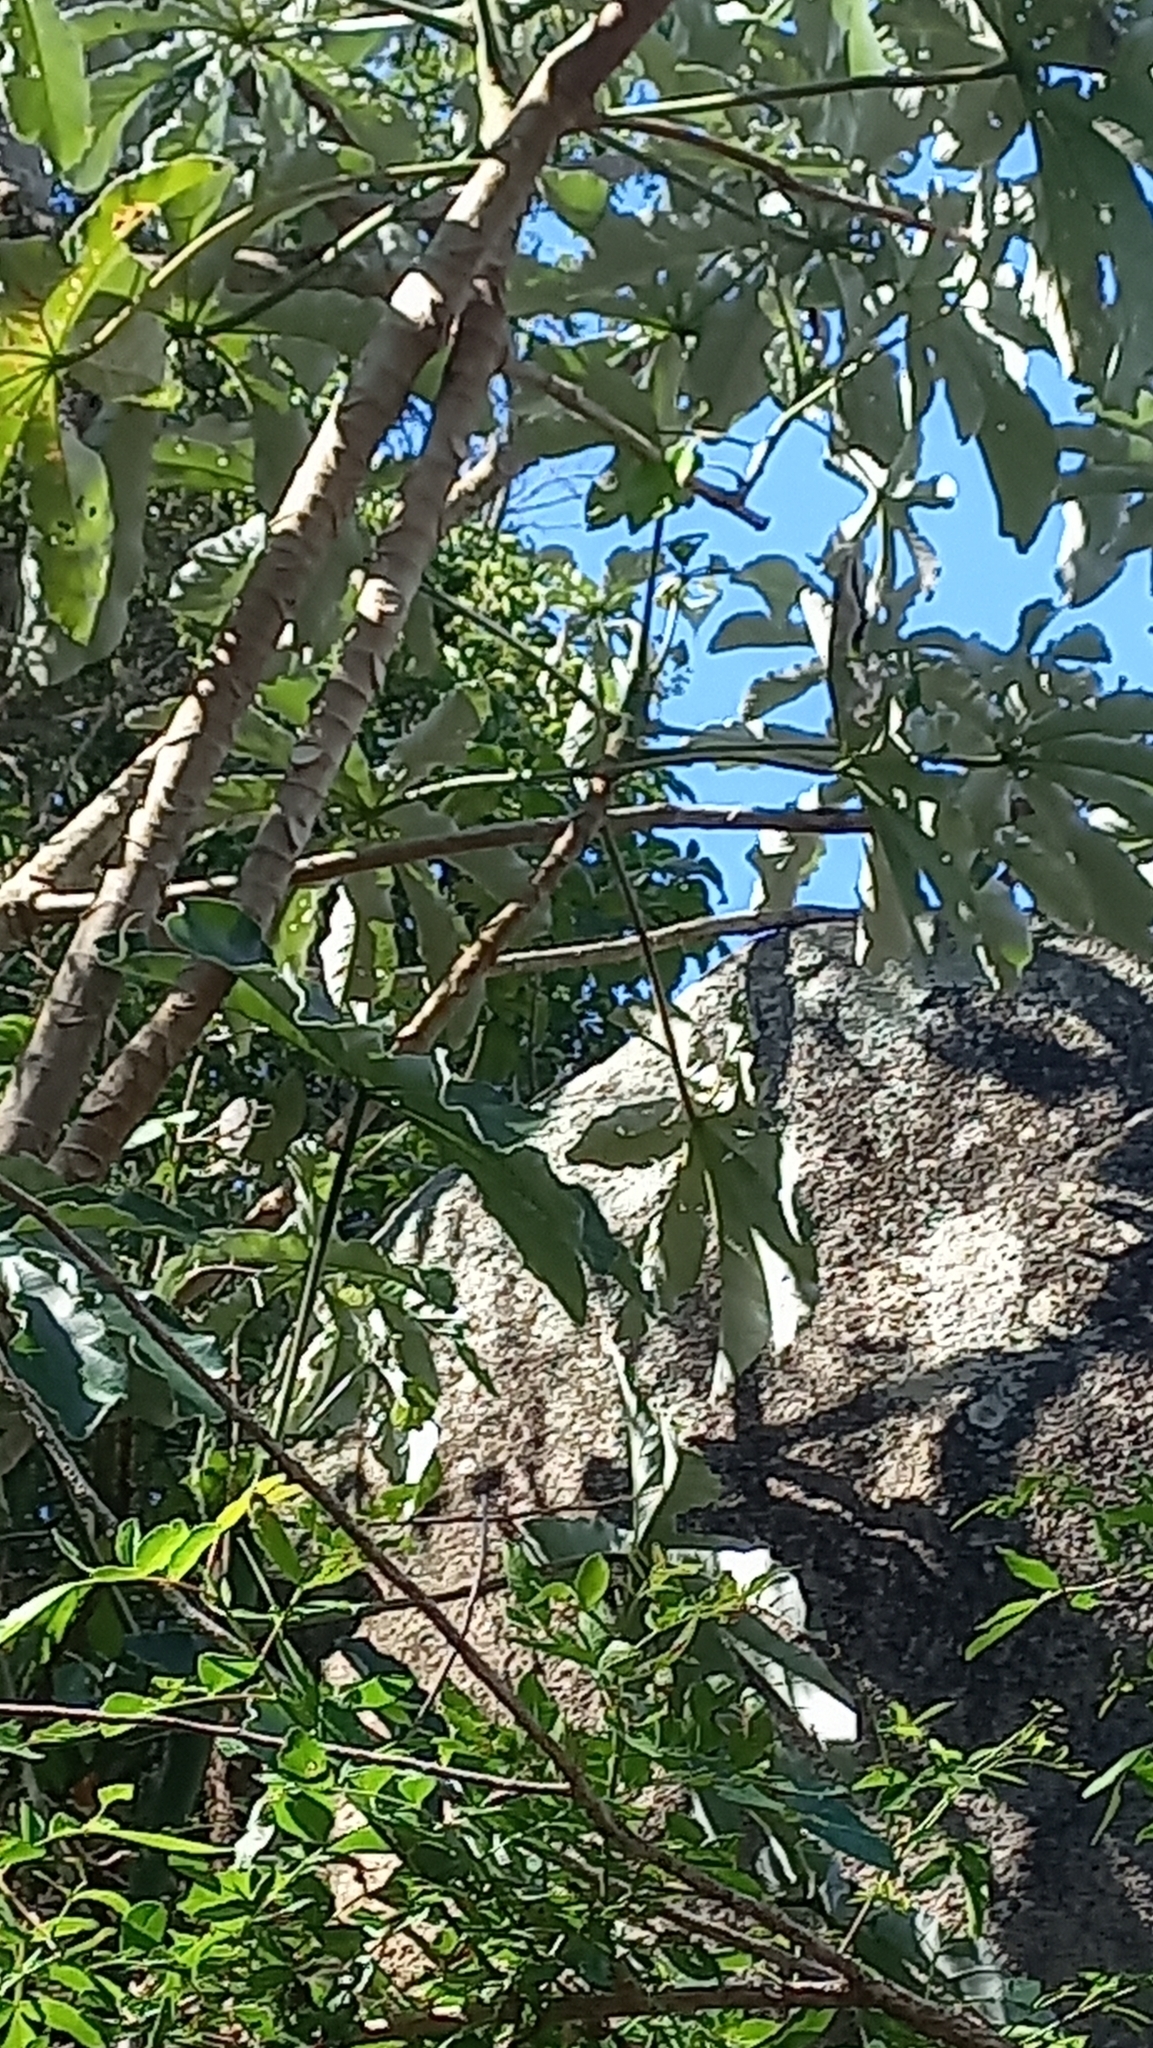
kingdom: Plantae
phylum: Tracheophyta
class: Magnoliopsida
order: Rosales
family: Urticaceae
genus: Cecropia
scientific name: Cecropia pachystachya
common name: Ambay pumpwood
